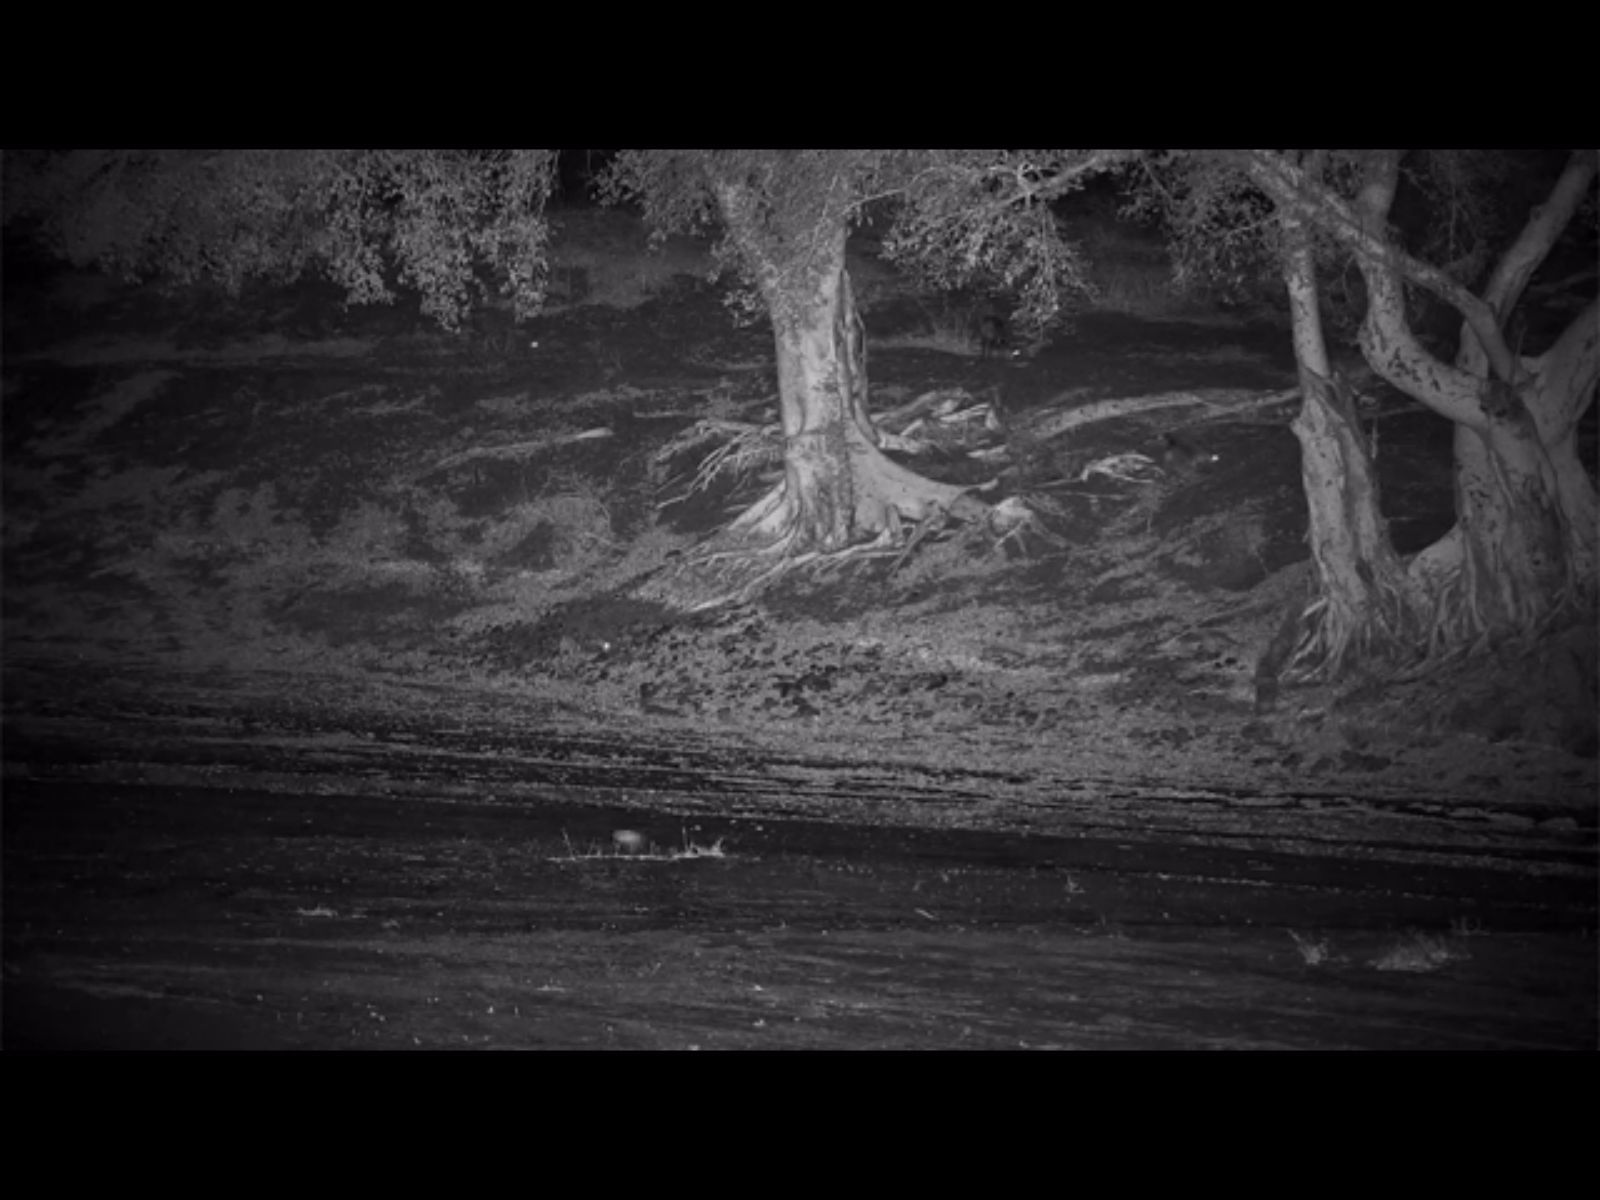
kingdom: Animalia
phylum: Chordata
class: Mammalia
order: Artiodactyla
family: Bovidae
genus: Tragelaphus
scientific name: Tragelaphus scriptus
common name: Bushbuck
